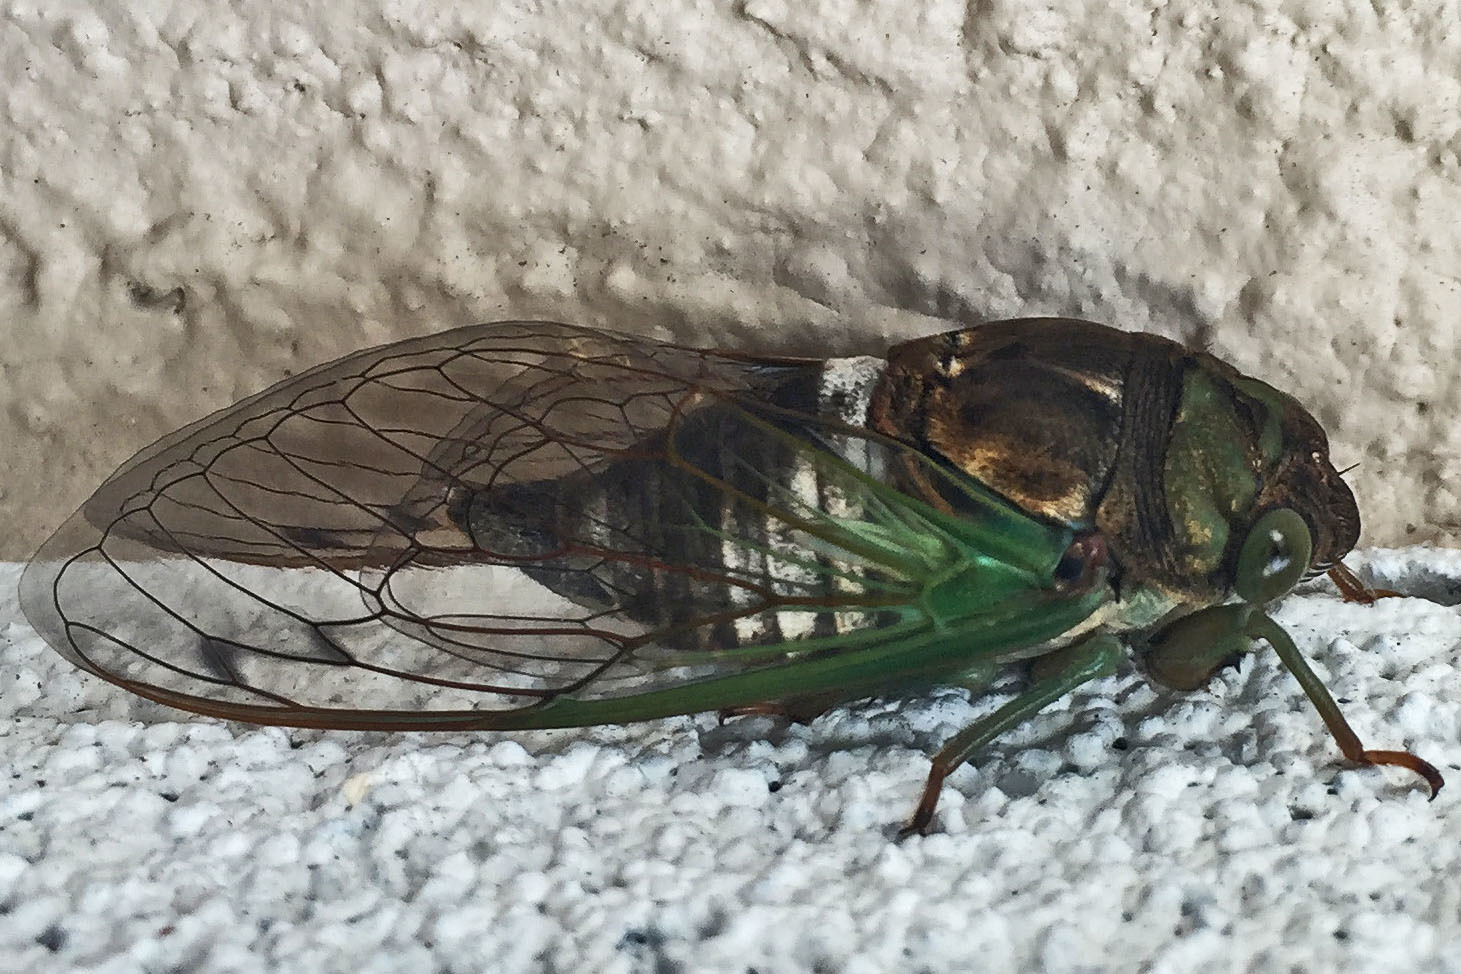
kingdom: Animalia
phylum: Arthropoda
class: Insecta
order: Hemiptera
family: Cicadidae
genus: Neotibicen
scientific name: Neotibicen tibicen
